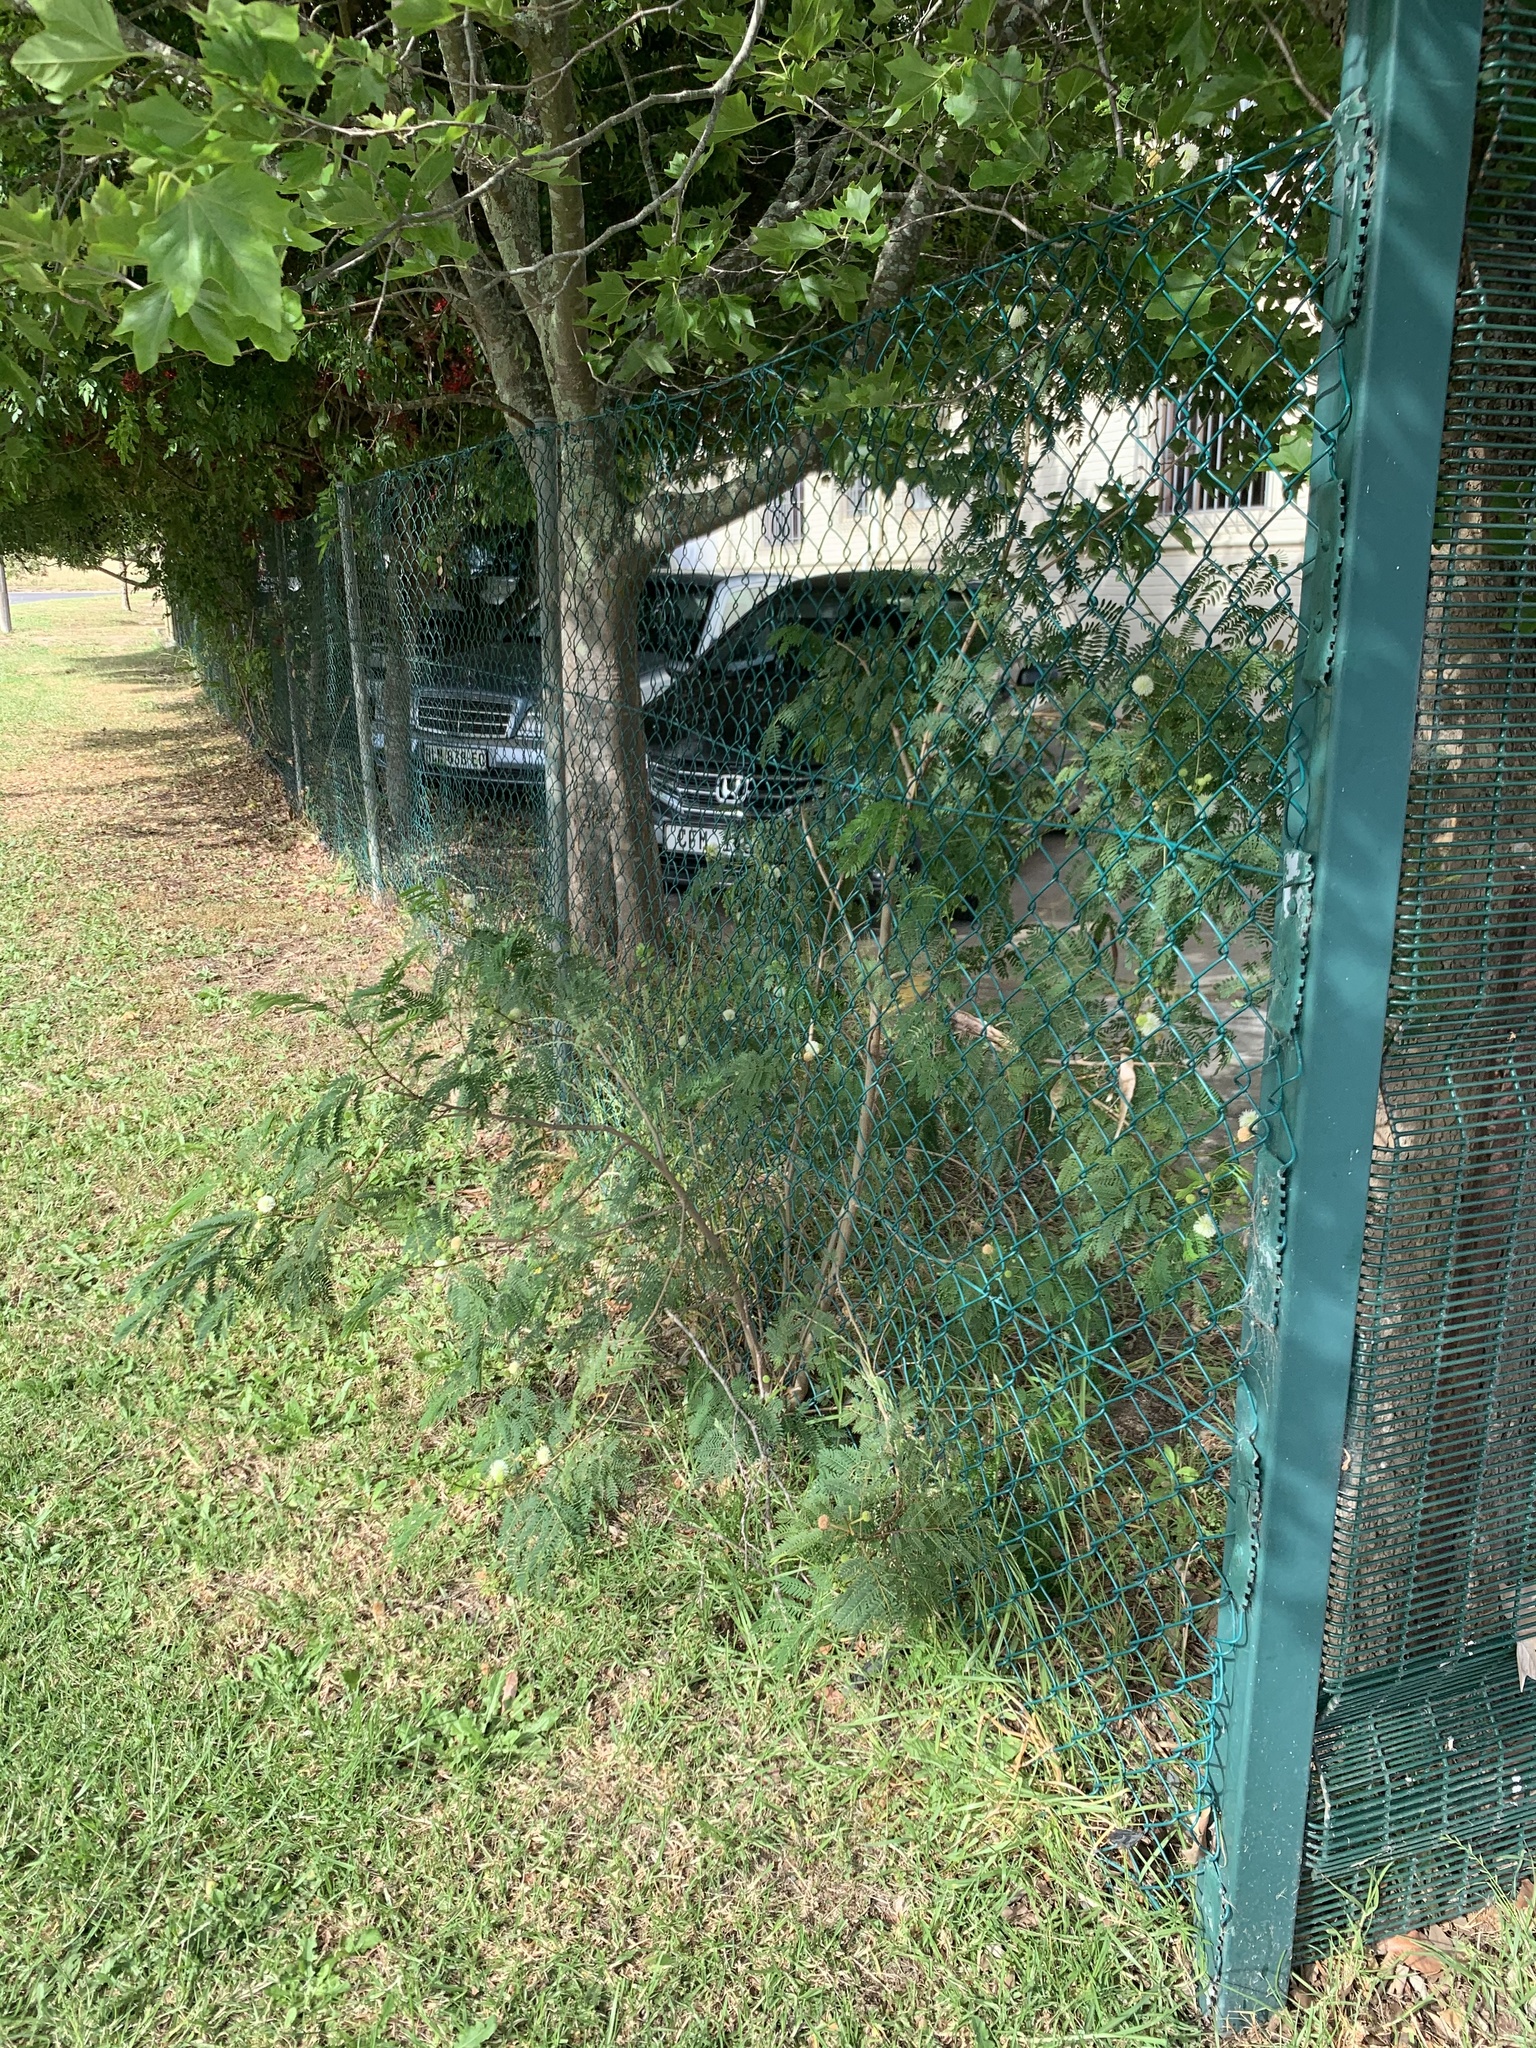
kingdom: Plantae
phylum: Tracheophyta
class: Magnoliopsida
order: Fabales
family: Fabaceae
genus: Leucaena
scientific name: Leucaena leucocephala
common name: White leadtree
